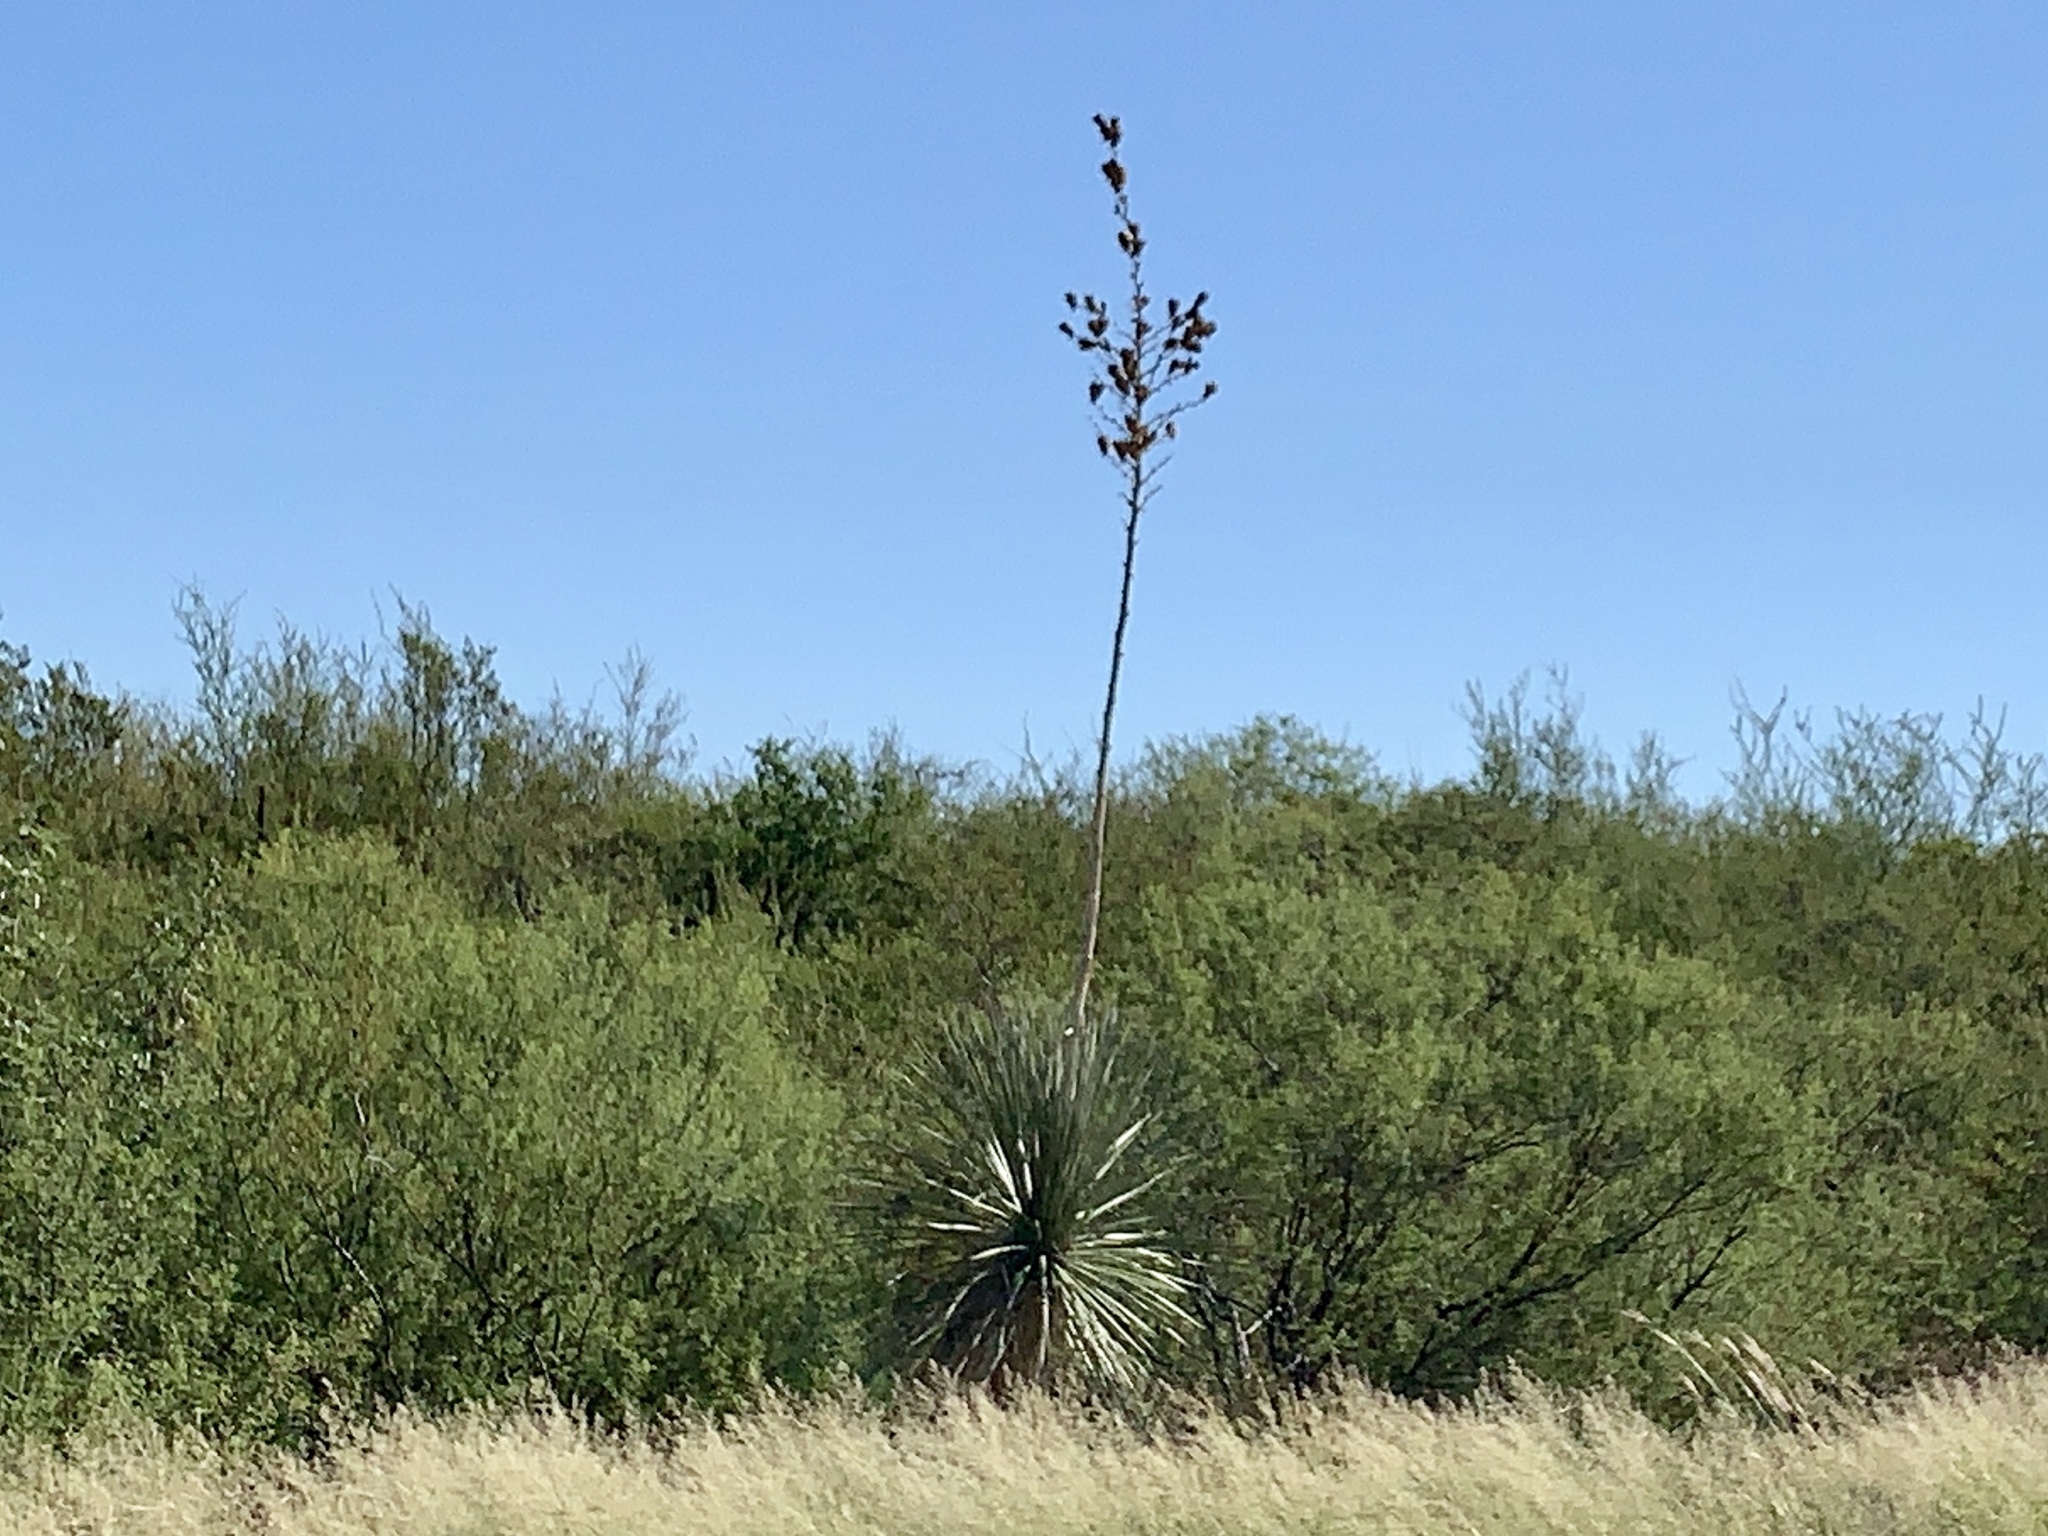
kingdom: Plantae
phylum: Tracheophyta
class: Liliopsida
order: Asparagales
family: Asparagaceae
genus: Yucca
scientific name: Yucca elata
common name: Palmella
